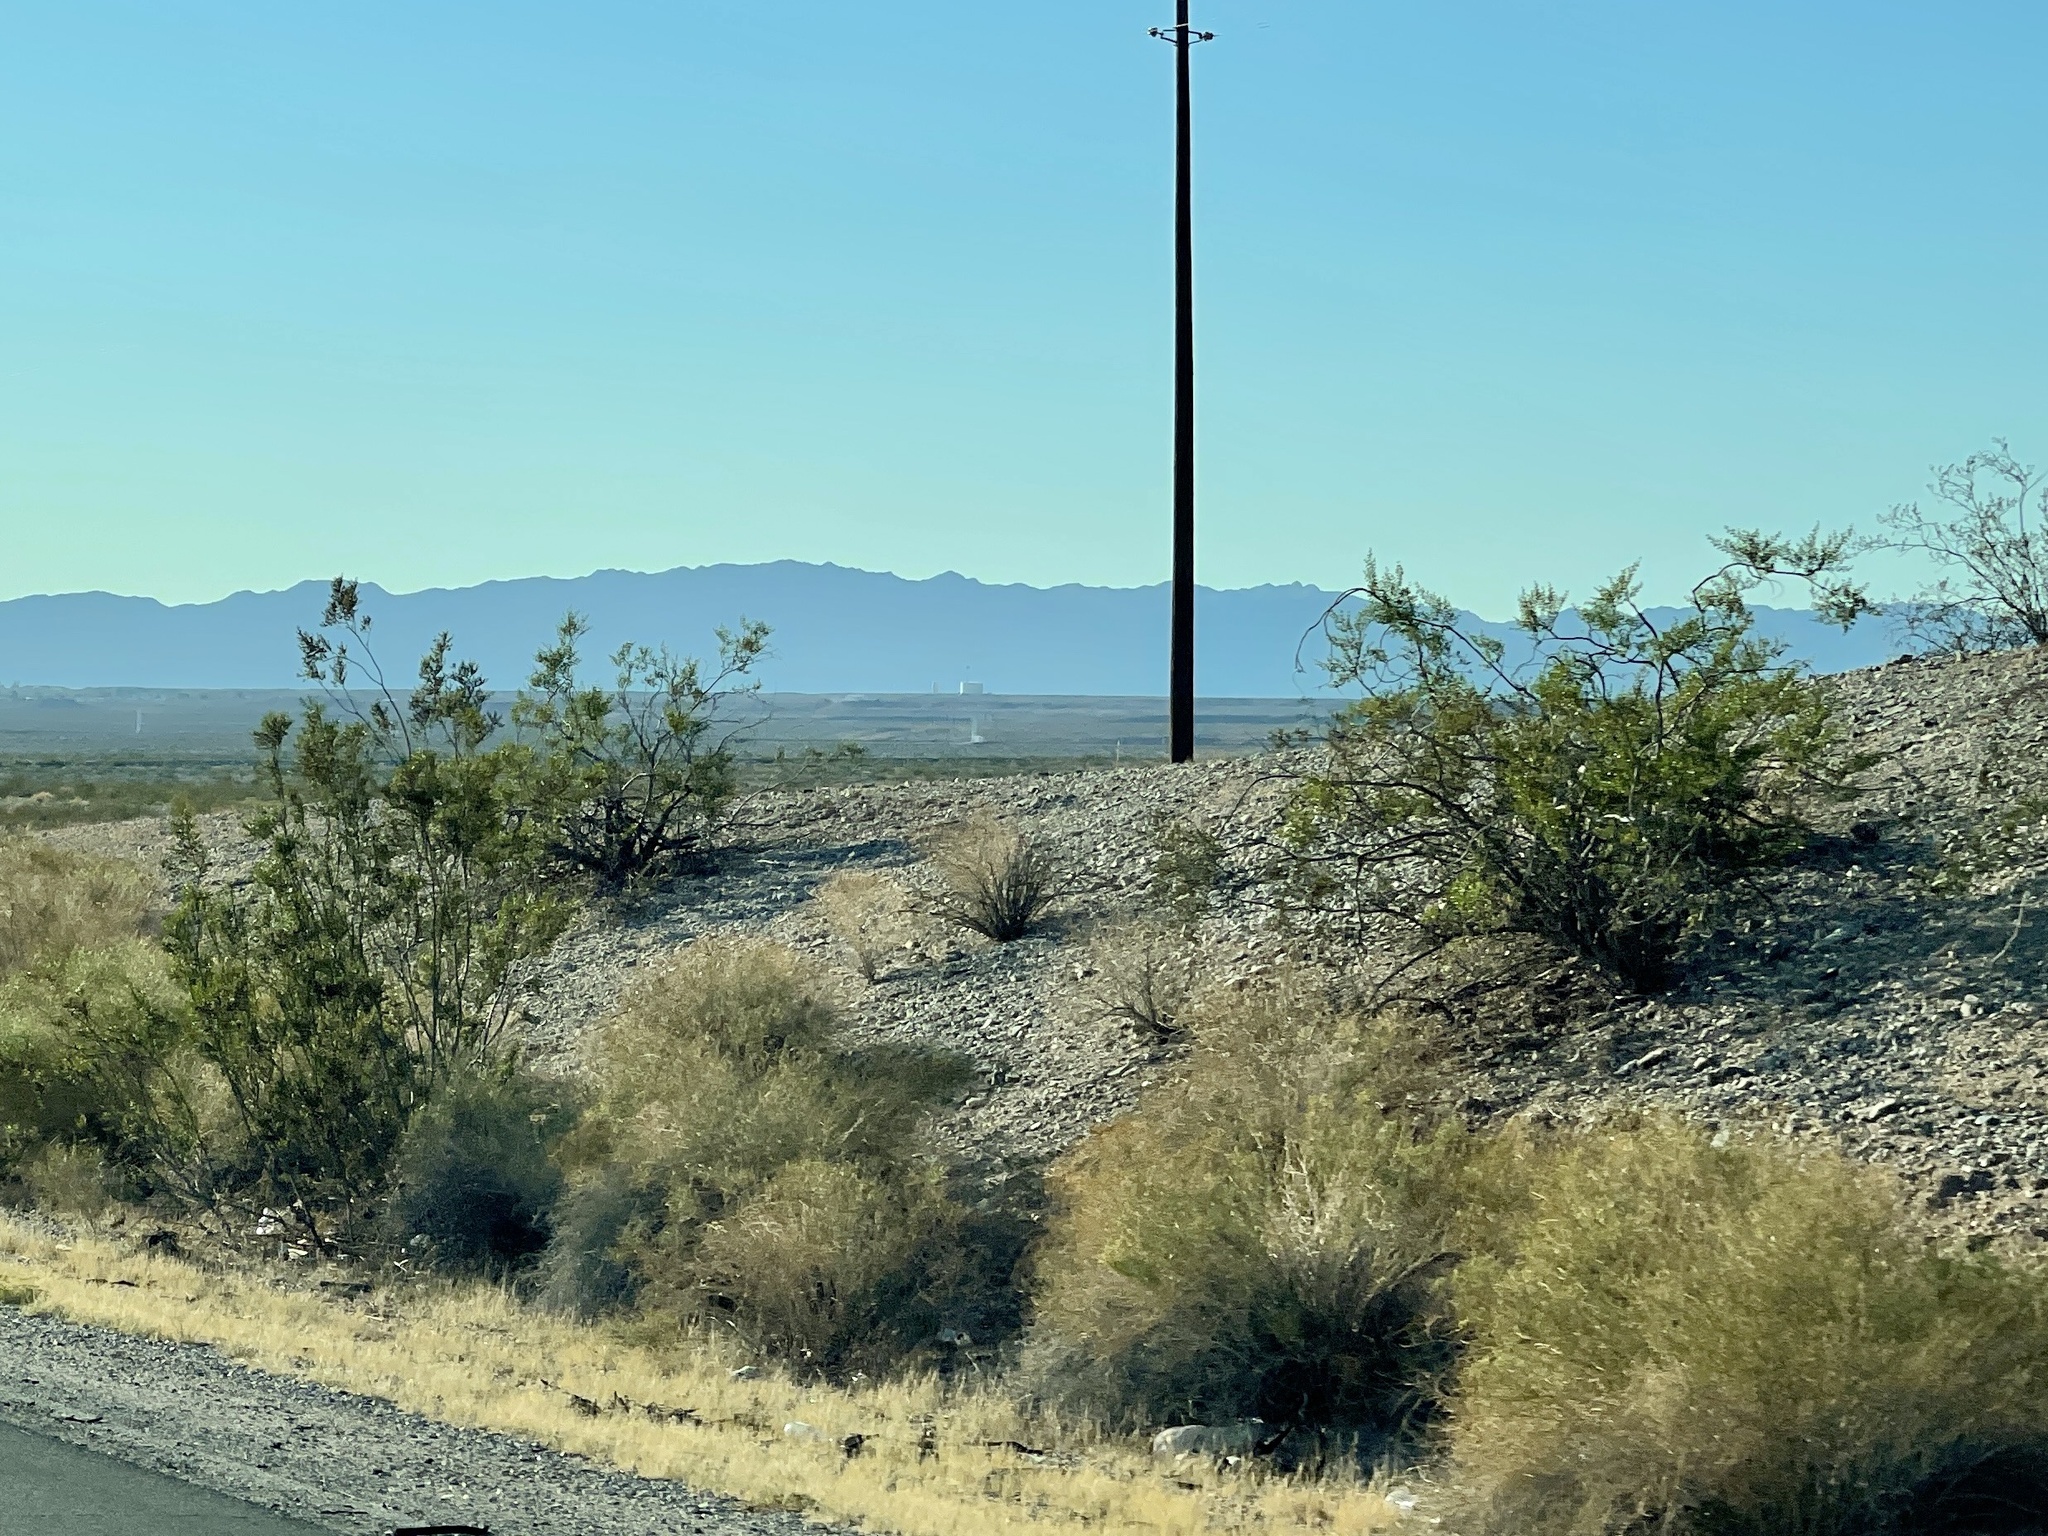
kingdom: Plantae
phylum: Tracheophyta
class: Magnoliopsida
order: Zygophyllales
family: Zygophyllaceae
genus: Larrea
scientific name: Larrea tridentata
